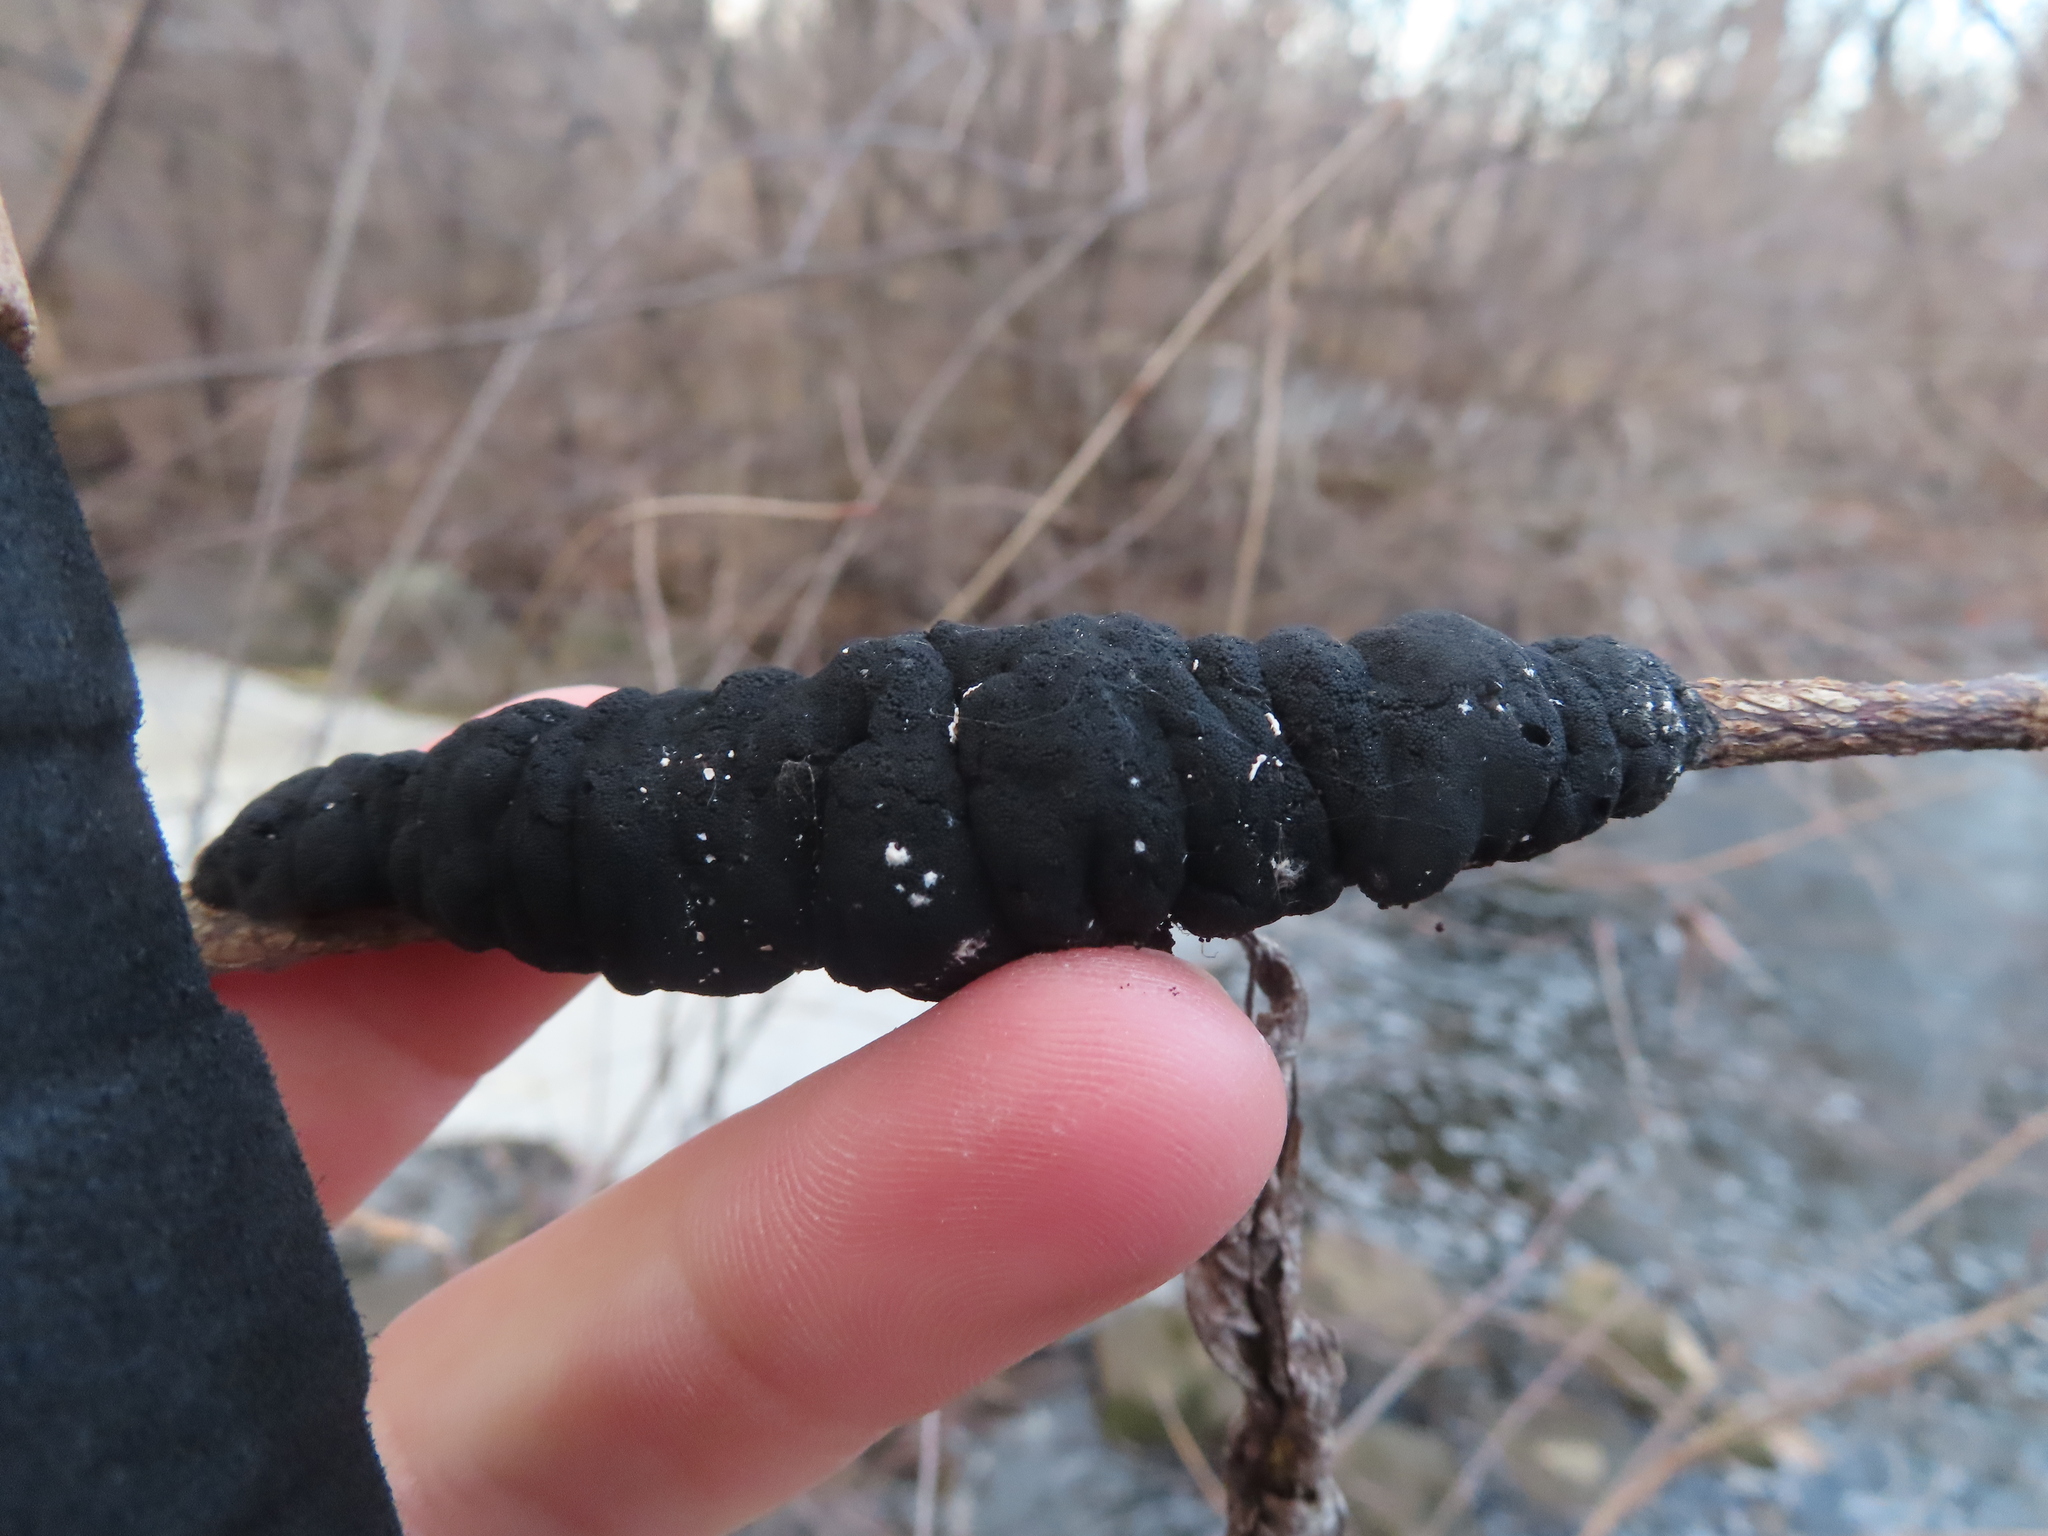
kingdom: Fungi
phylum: Ascomycota
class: Dothideomycetes
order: Venturiales
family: Venturiaceae
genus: Apiosporina
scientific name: Apiosporina morbosa
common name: Black knot
